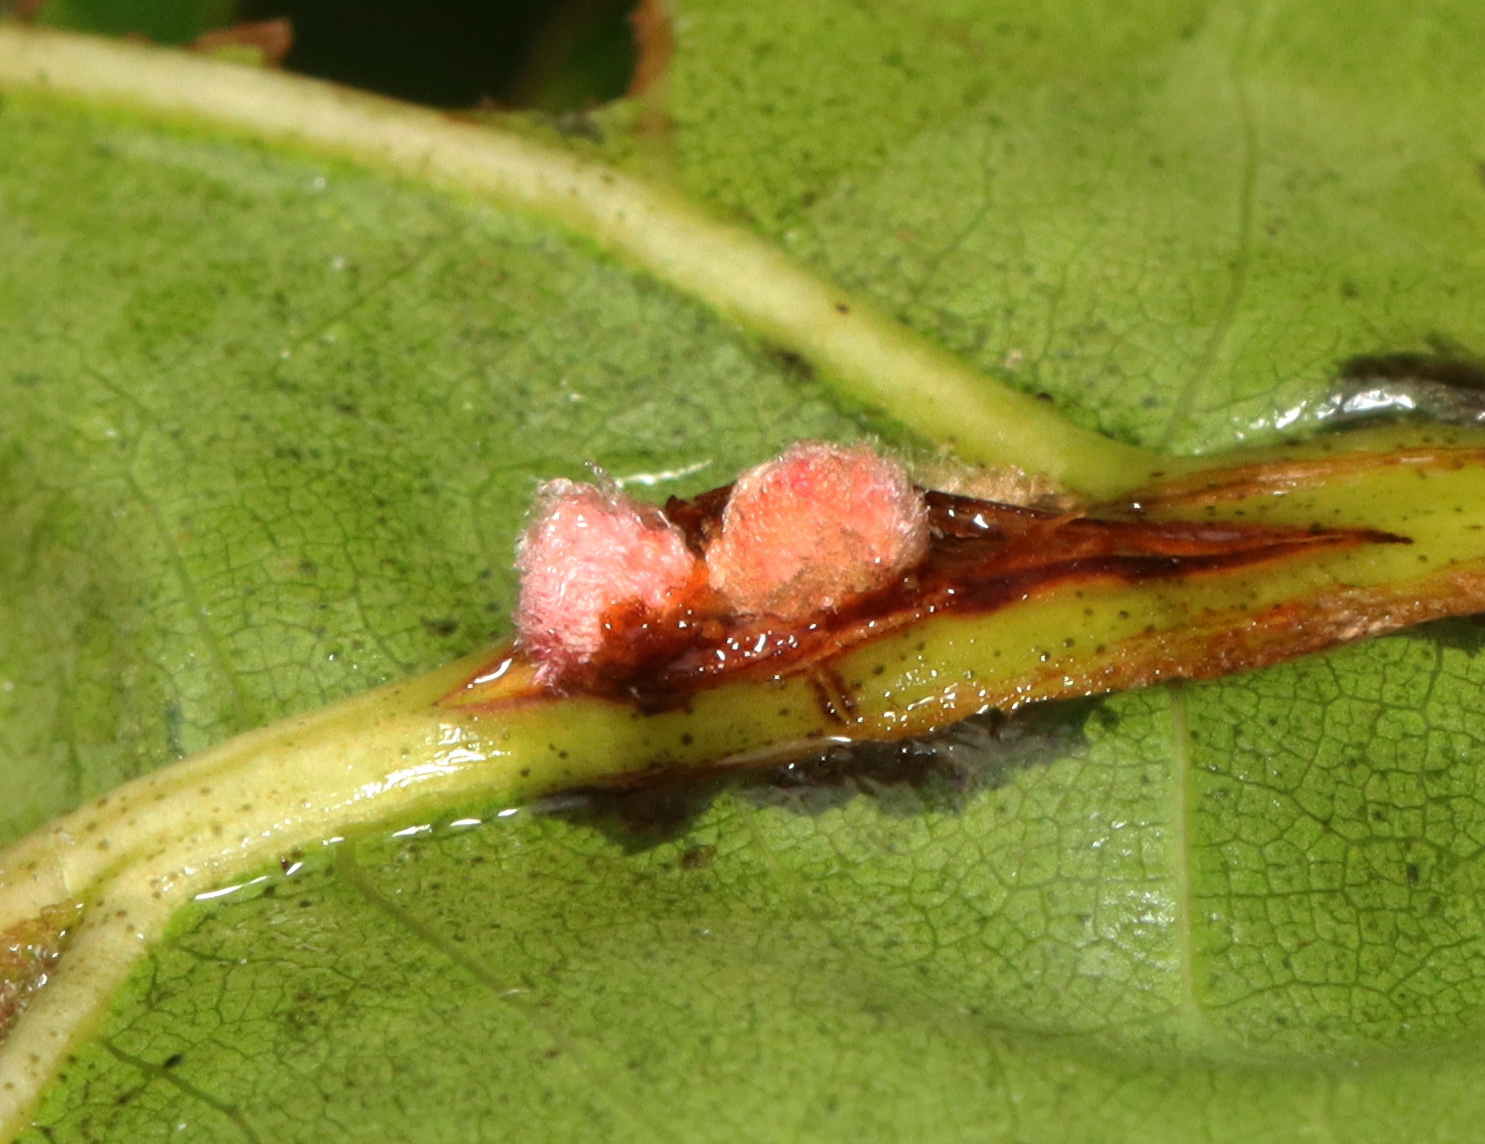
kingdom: Animalia
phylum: Arthropoda
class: Insecta
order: Hymenoptera
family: Cynipidae
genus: Callirhytis
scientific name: Callirhytis
